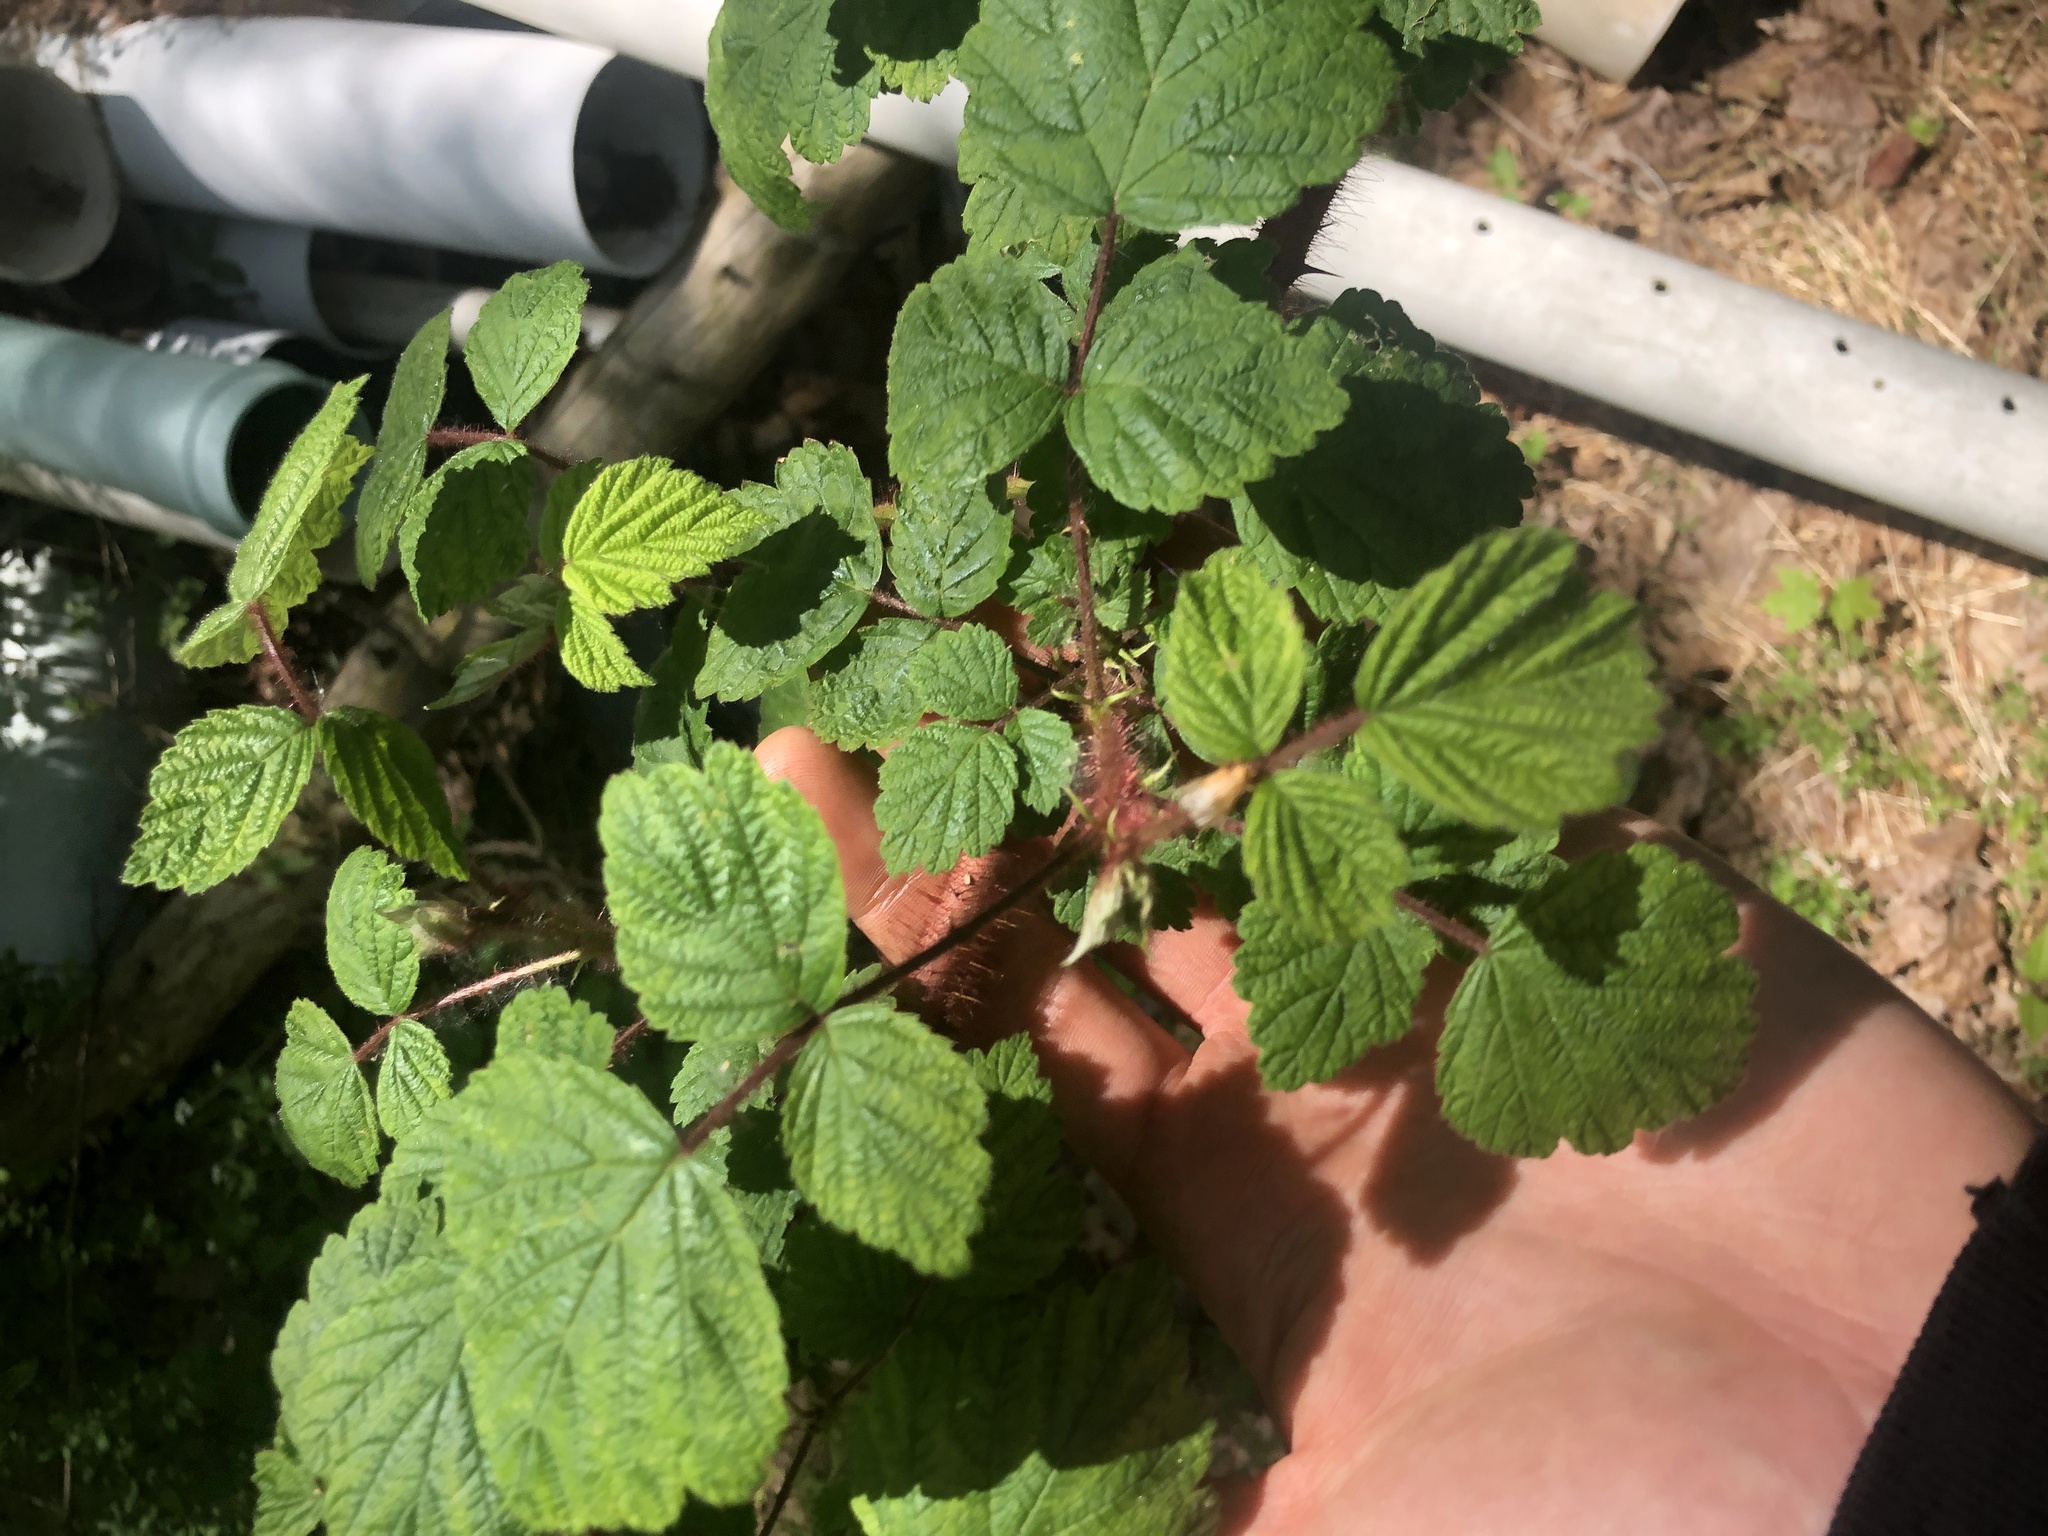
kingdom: Plantae
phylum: Tracheophyta
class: Magnoliopsida
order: Rosales
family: Rosaceae
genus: Rubus
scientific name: Rubus phoenicolasius
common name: Japanese wineberry
